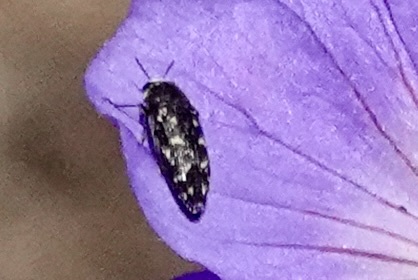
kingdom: Animalia
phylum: Arthropoda
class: Insecta
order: Coleoptera
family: Buprestidae
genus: Acmaeodera
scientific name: Acmaeodera tubulus
